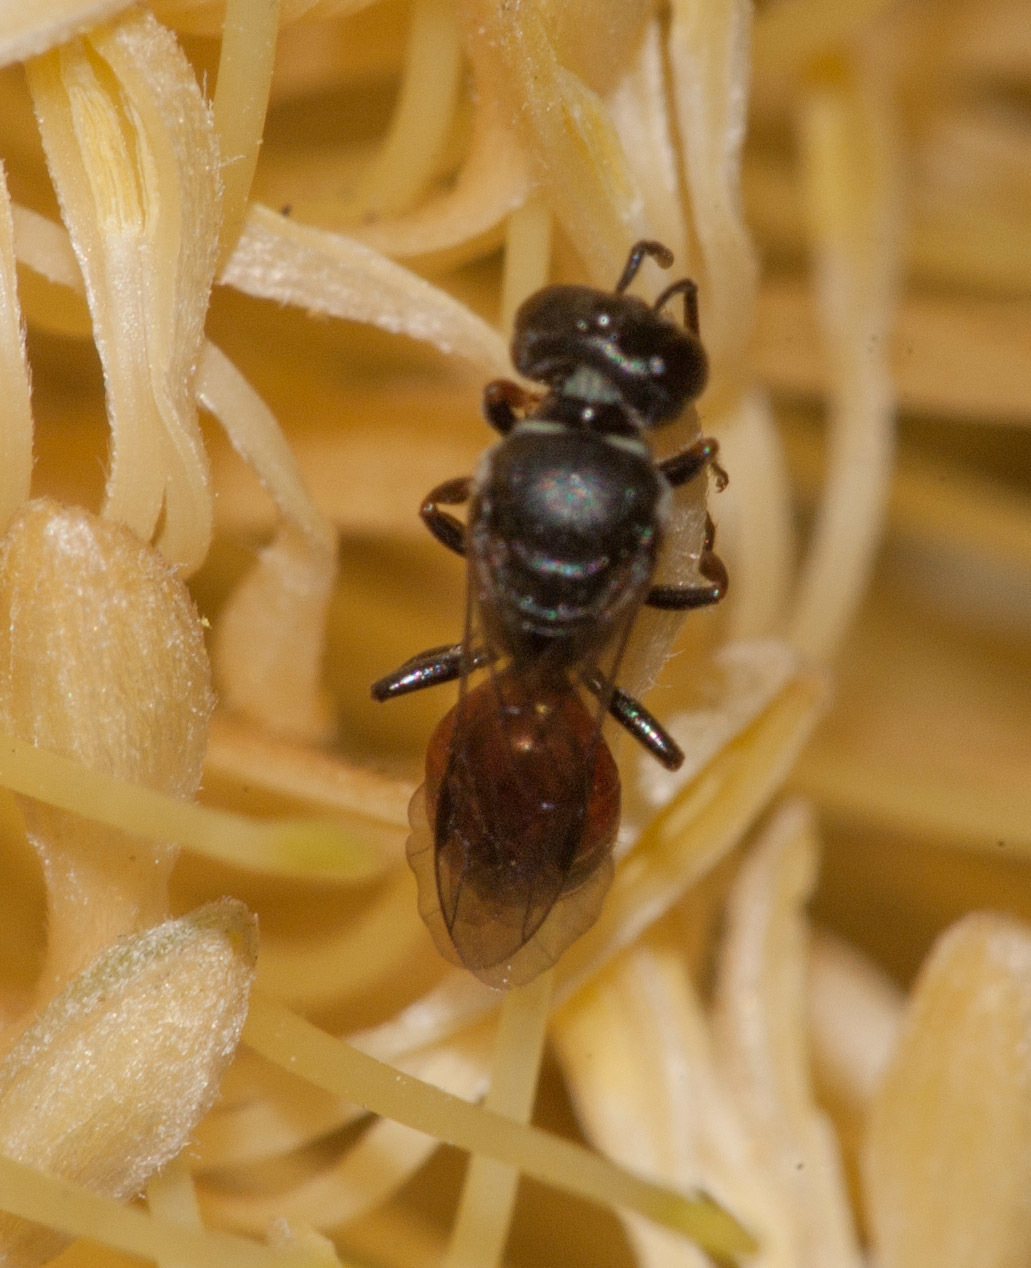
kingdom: Animalia
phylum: Arthropoda
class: Insecta
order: Hymenoptera
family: Colletidae
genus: Hylaeus
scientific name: Hylaeus littleri
